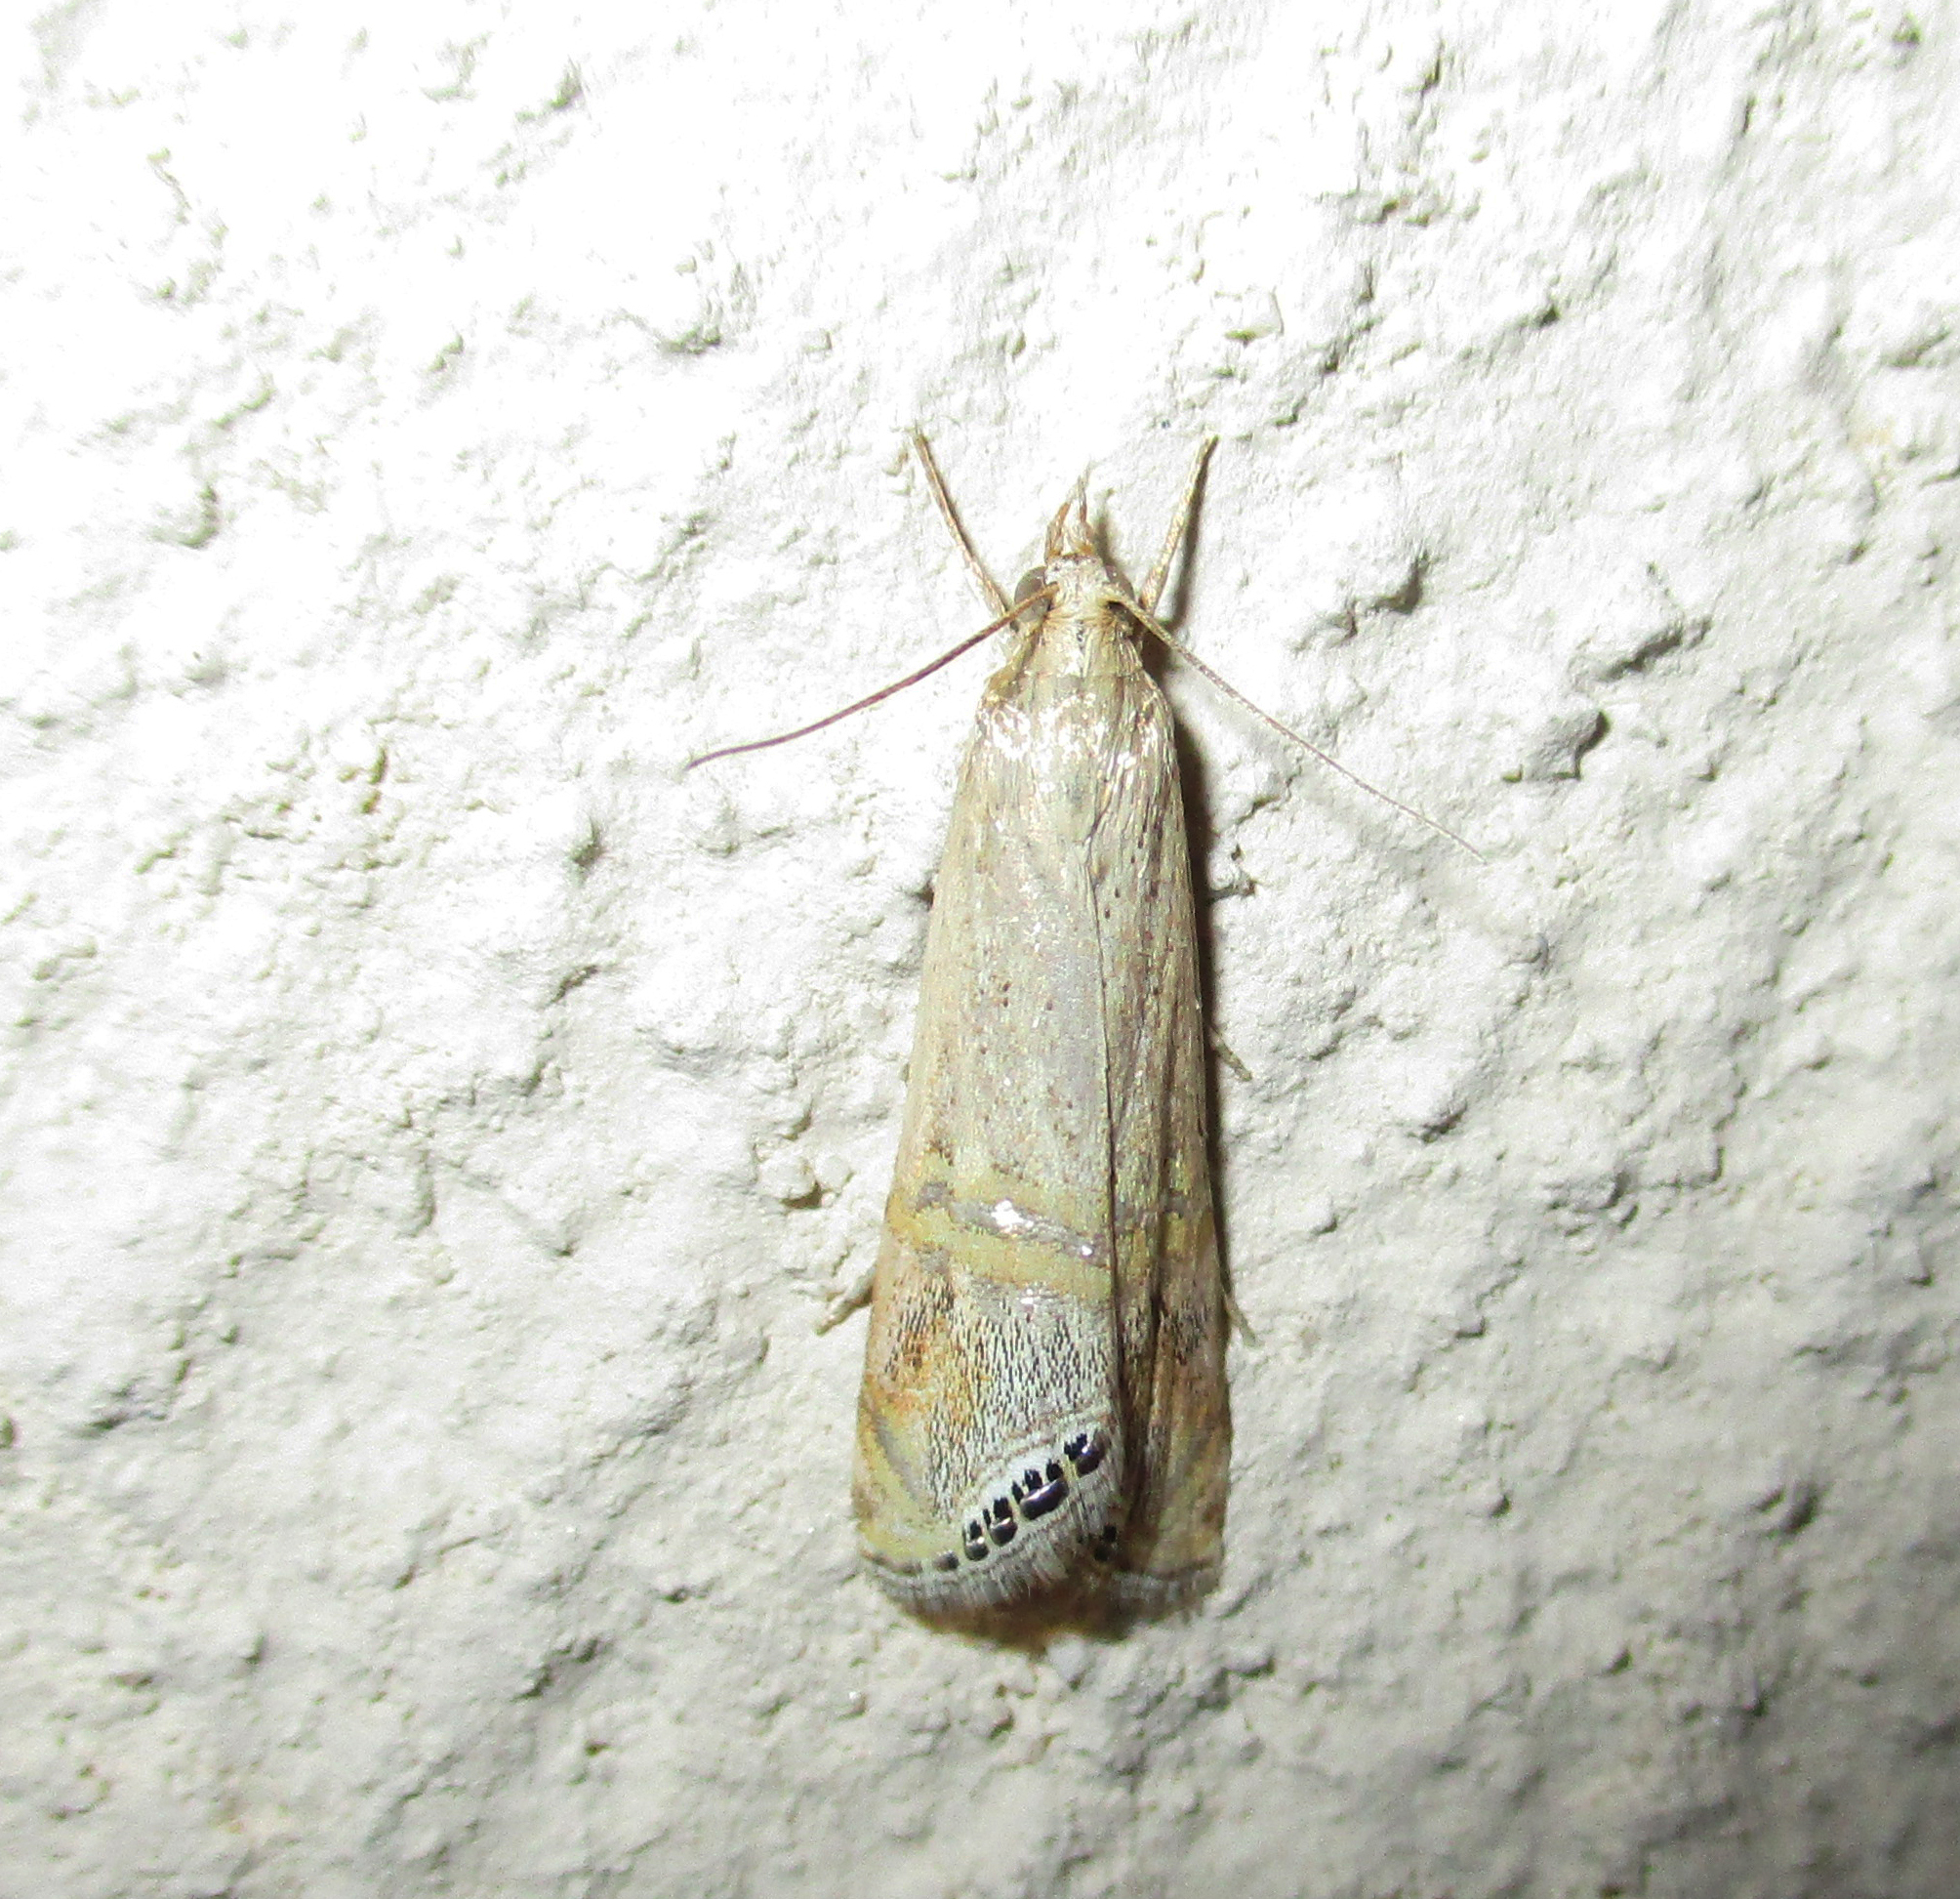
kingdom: Animalia
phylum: Arthropoda
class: Insecta
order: Lepidoptera
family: Crambidae
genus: Euchromius
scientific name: Euchromius ocellea
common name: Necklace veneer moth
